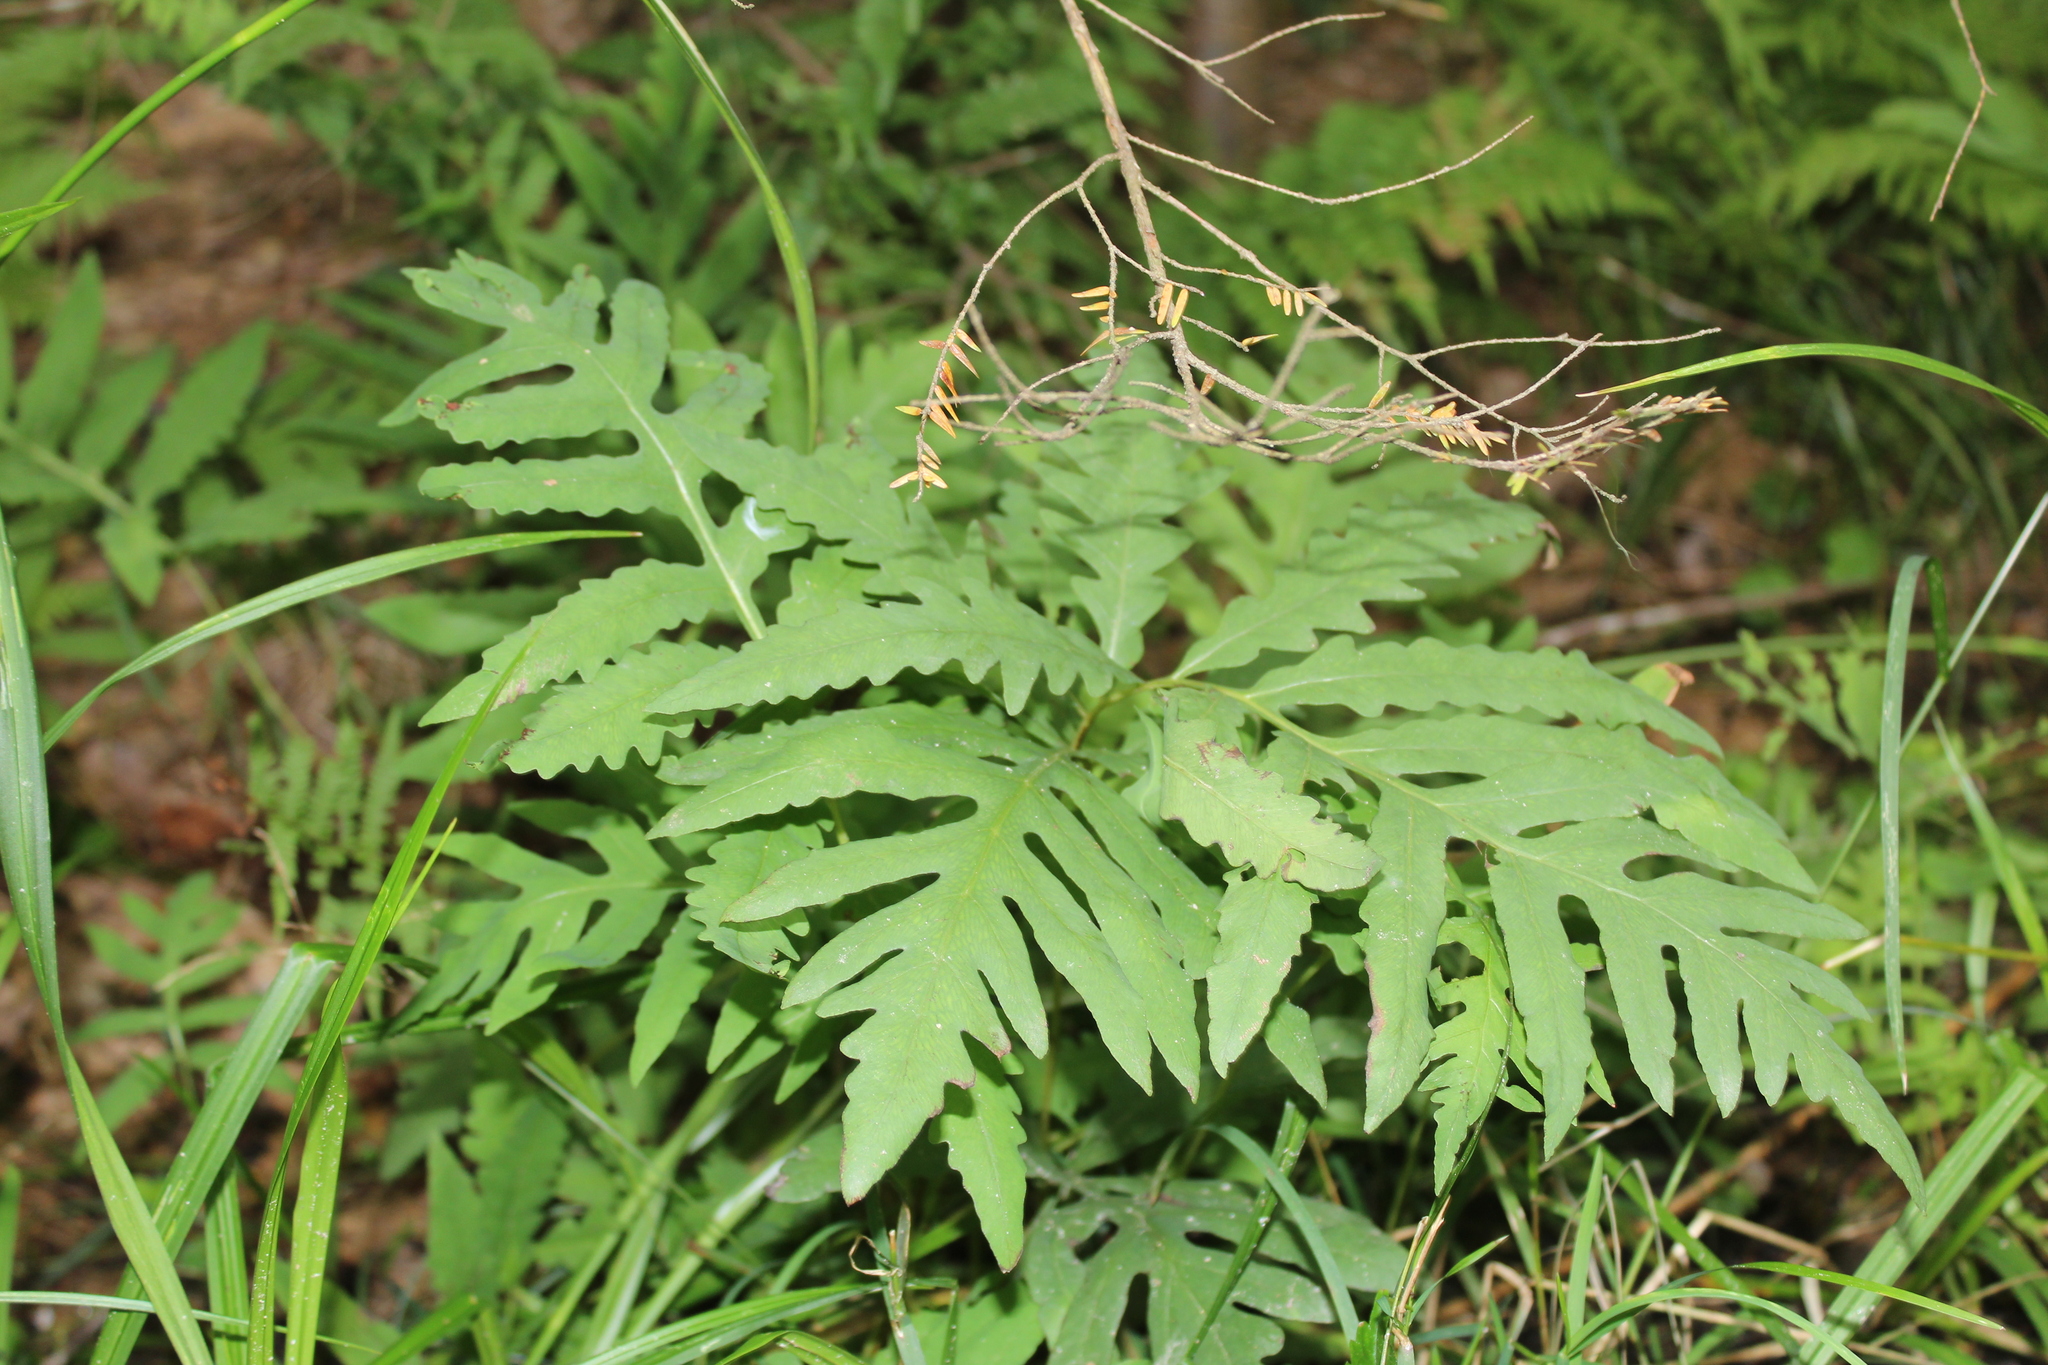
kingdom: Plantae
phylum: Tracheophyta
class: Polypodiopsida
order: Polypodiales
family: Onocleaceae
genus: Onoclea
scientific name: Onoclea sensibilis
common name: Sensitive fern
